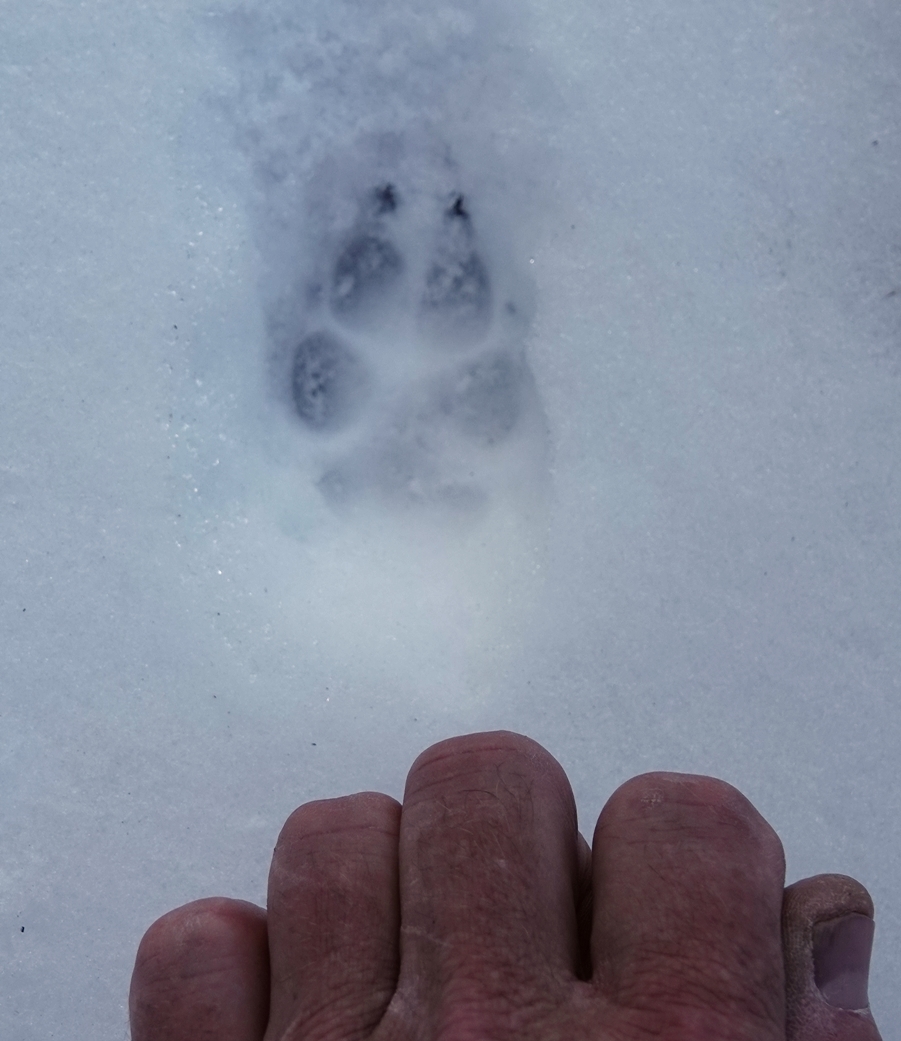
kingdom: Animalia
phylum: Chordata
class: Mammalia
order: Carnivora
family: Canidae
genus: Canis
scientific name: Canis latrans
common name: Coyote
